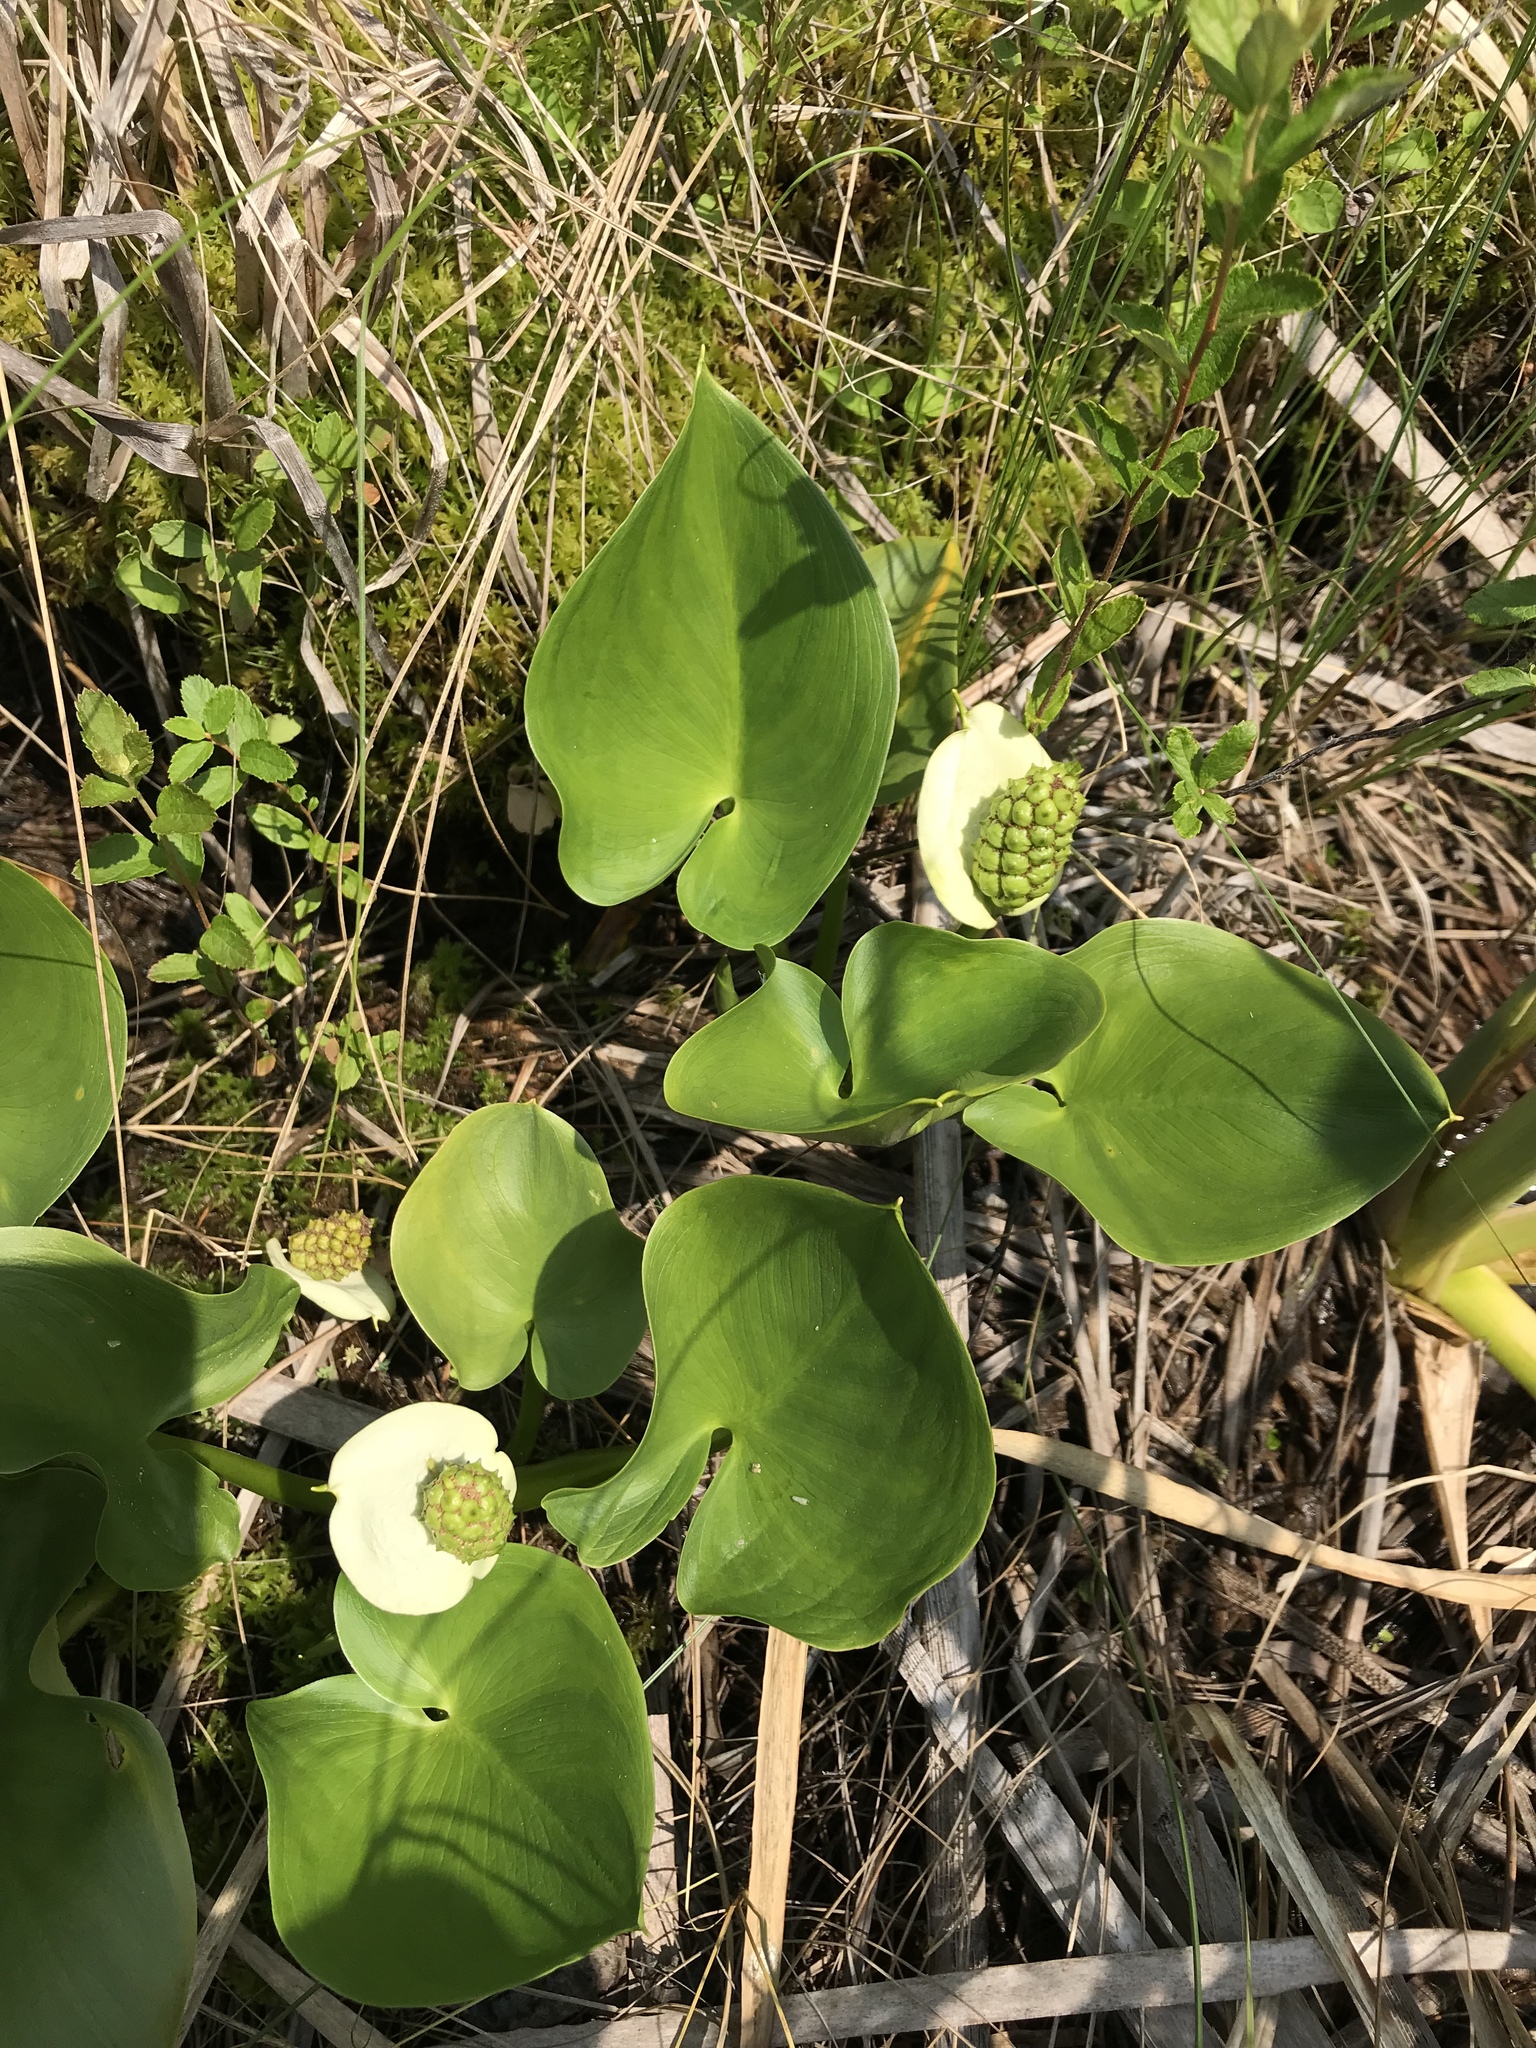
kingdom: Plantae
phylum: Tracheophyta
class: Liliopsida
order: Alismatales
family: Araceae
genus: Calla
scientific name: Calla palustris
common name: Bog arum
